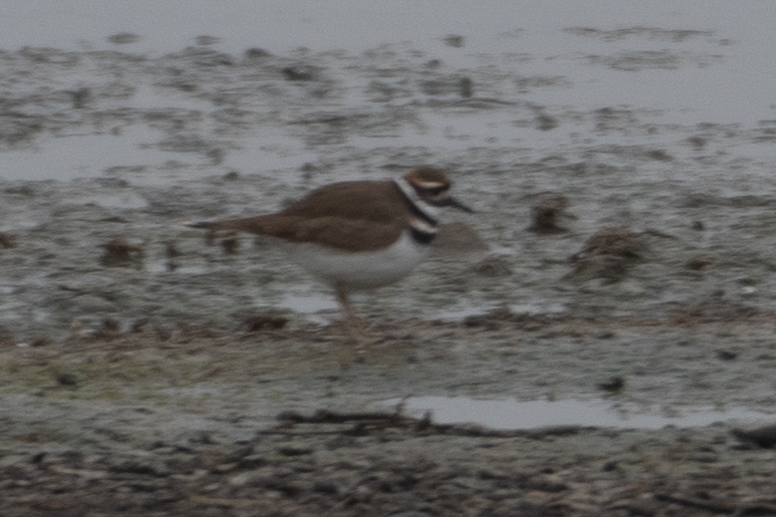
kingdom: Animalia
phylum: Chordata
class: Aves
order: Charadriiformes
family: Charadriidae
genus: Charadrius
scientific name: Charadrius vociferus
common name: Killdeer
